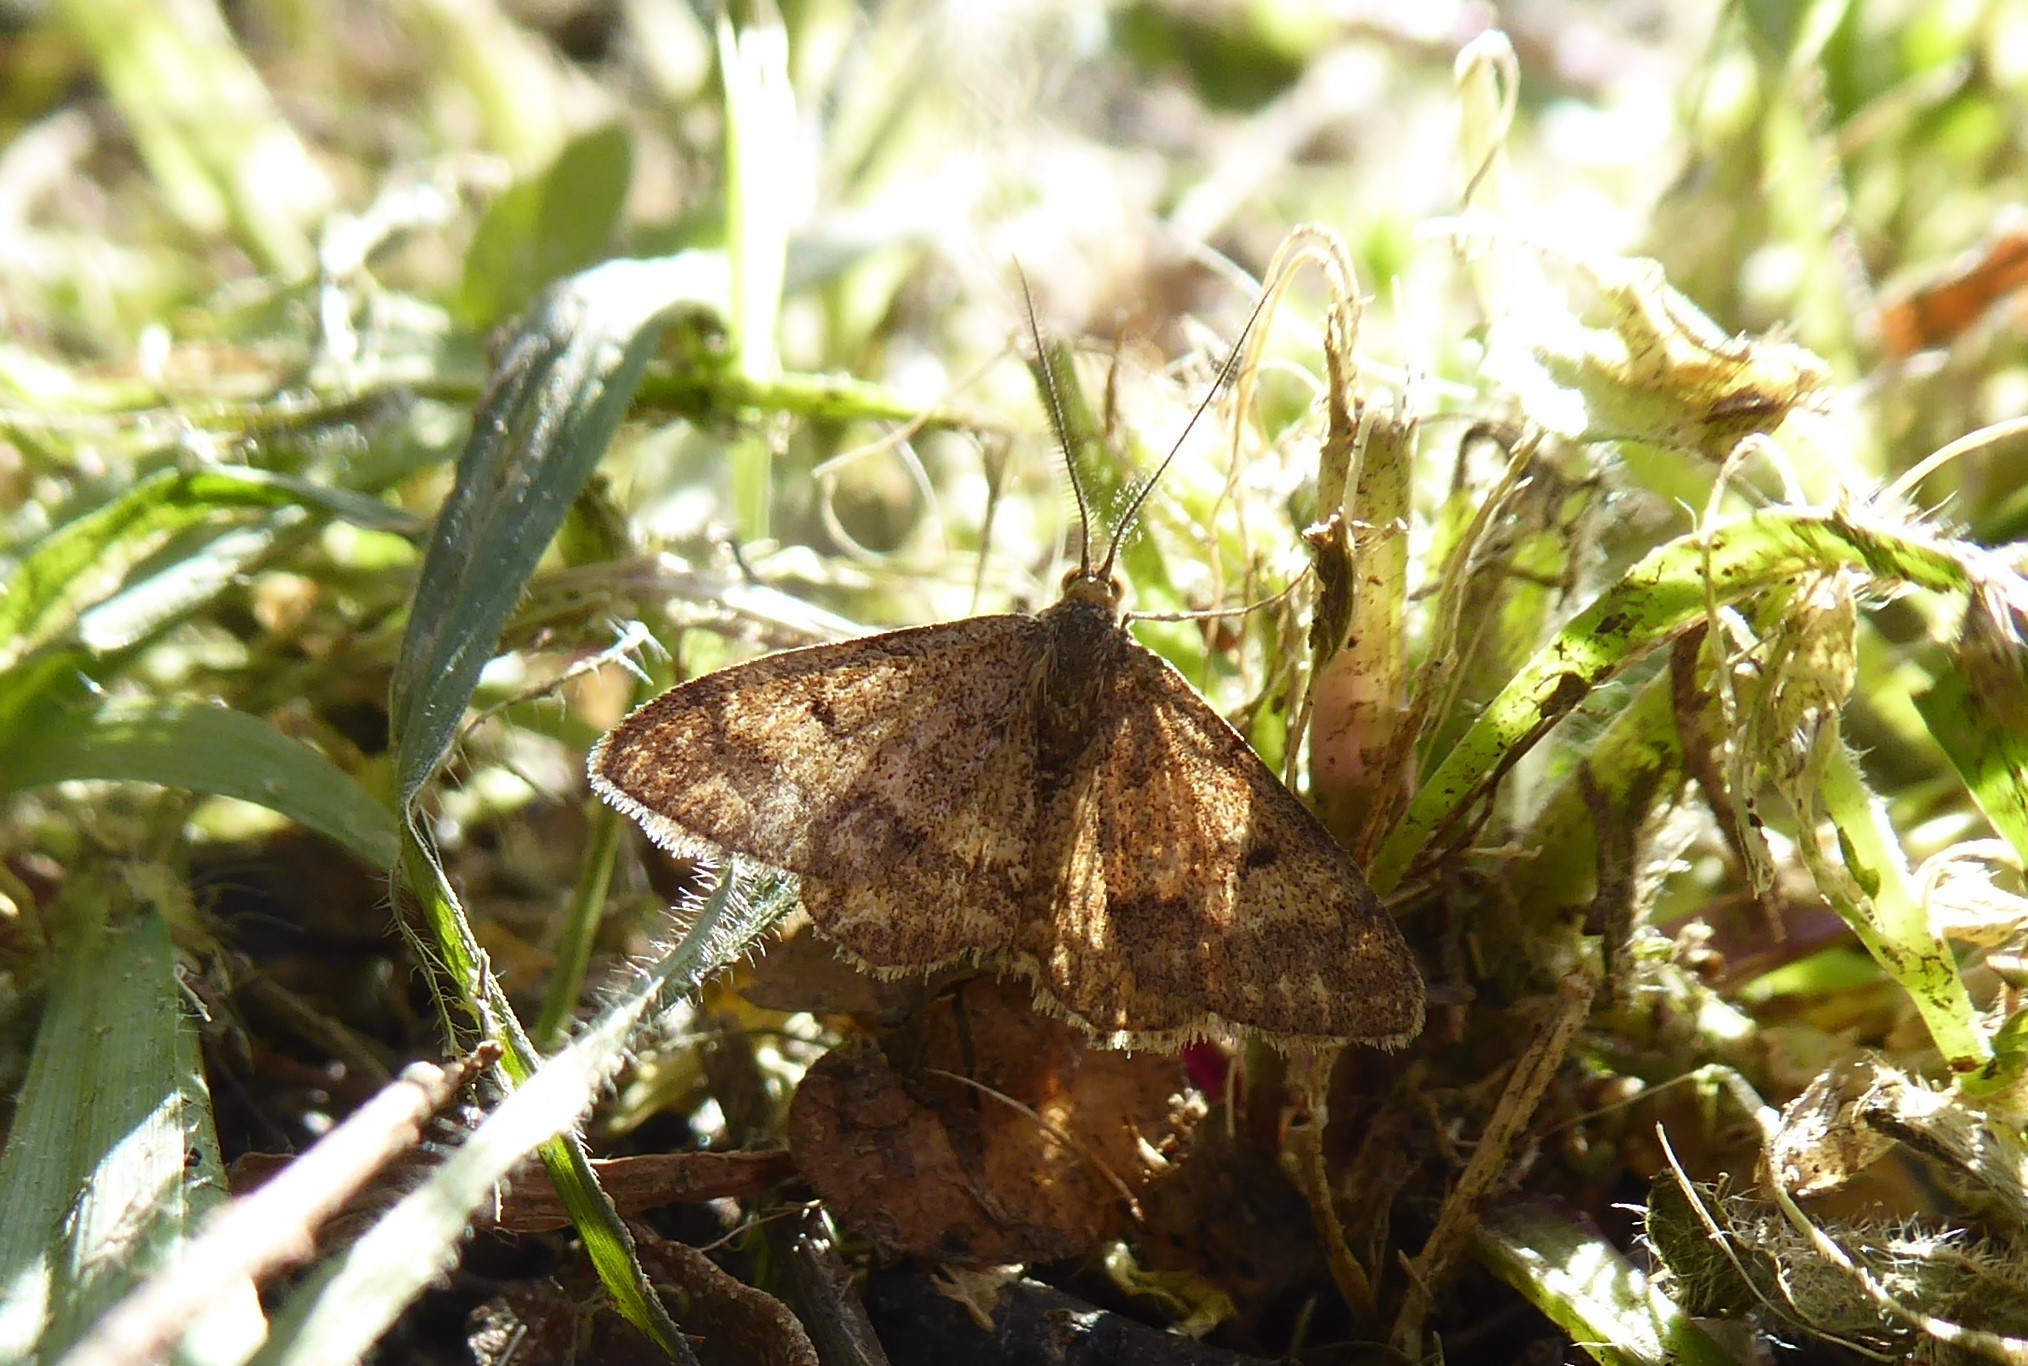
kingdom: Animalia
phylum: Arthropoda
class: Insecta
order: Lepidoptera
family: Geometridae
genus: Scopula
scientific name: Scopula rubraria
